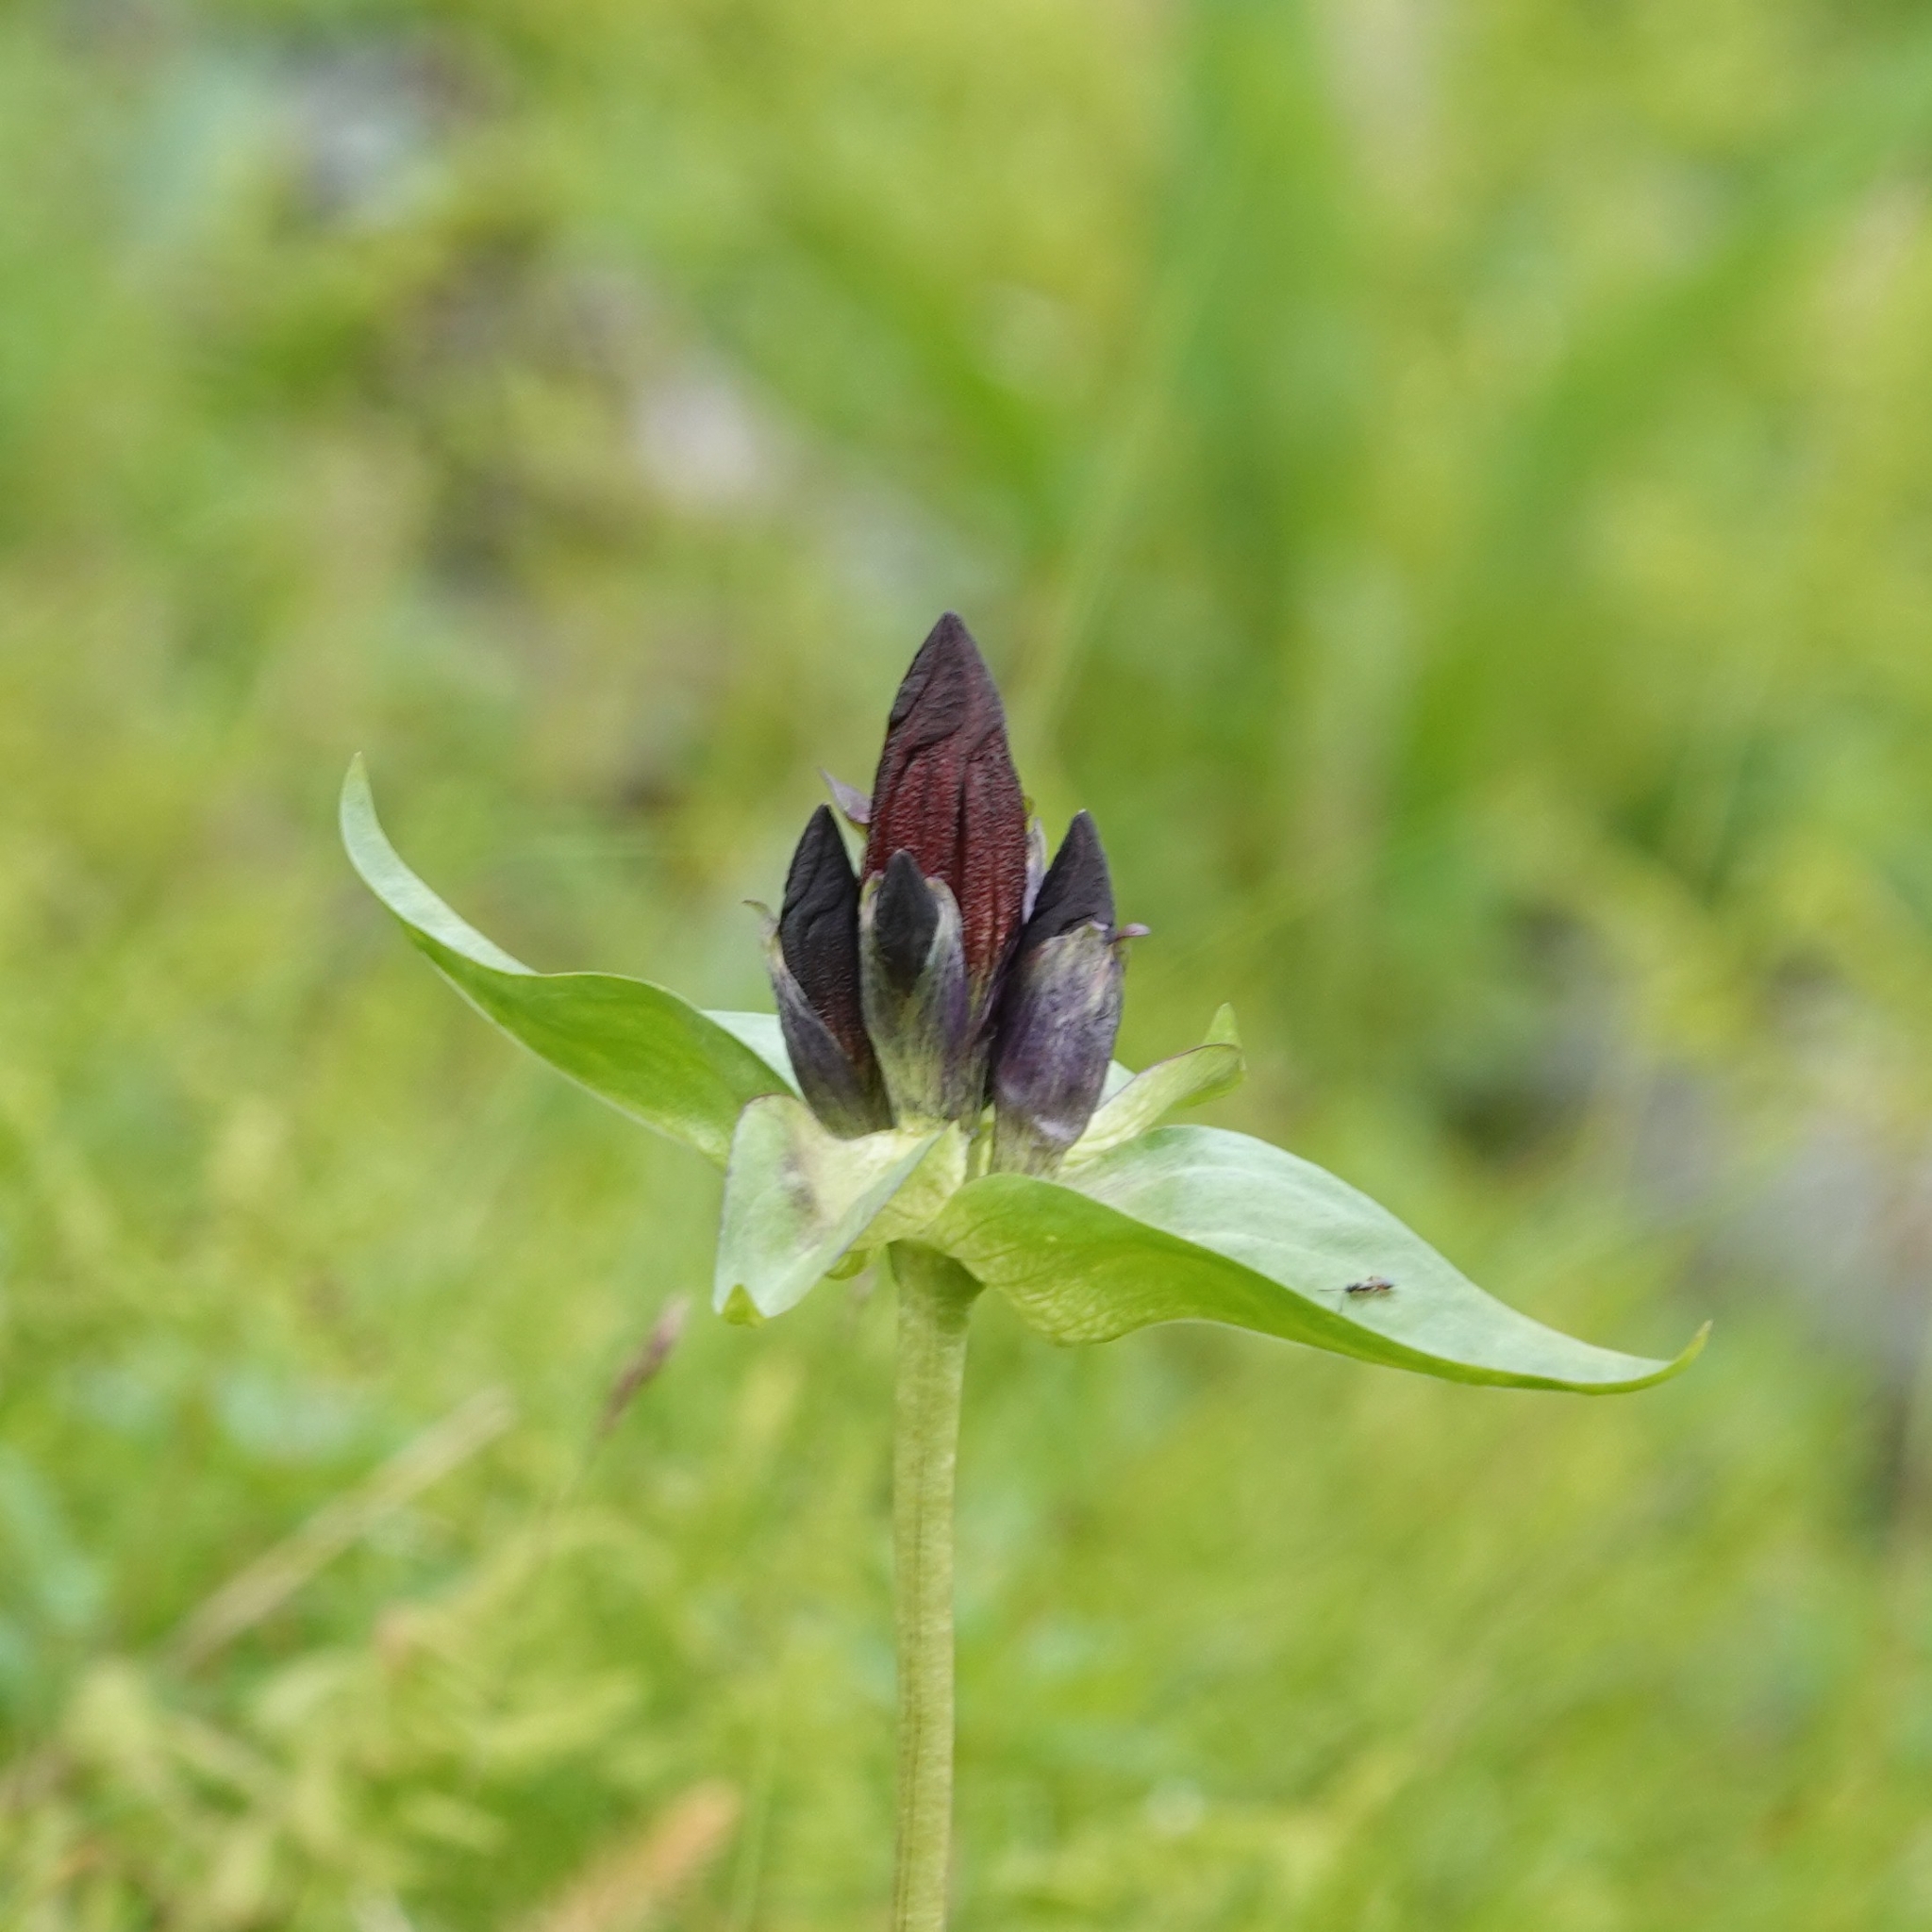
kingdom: Plantae
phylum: Tracheophyta
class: Magnoliopsida
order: Gentianales
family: Gentianaceae
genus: Gentiana
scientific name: Gentiana purpurea
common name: Purple gentian
